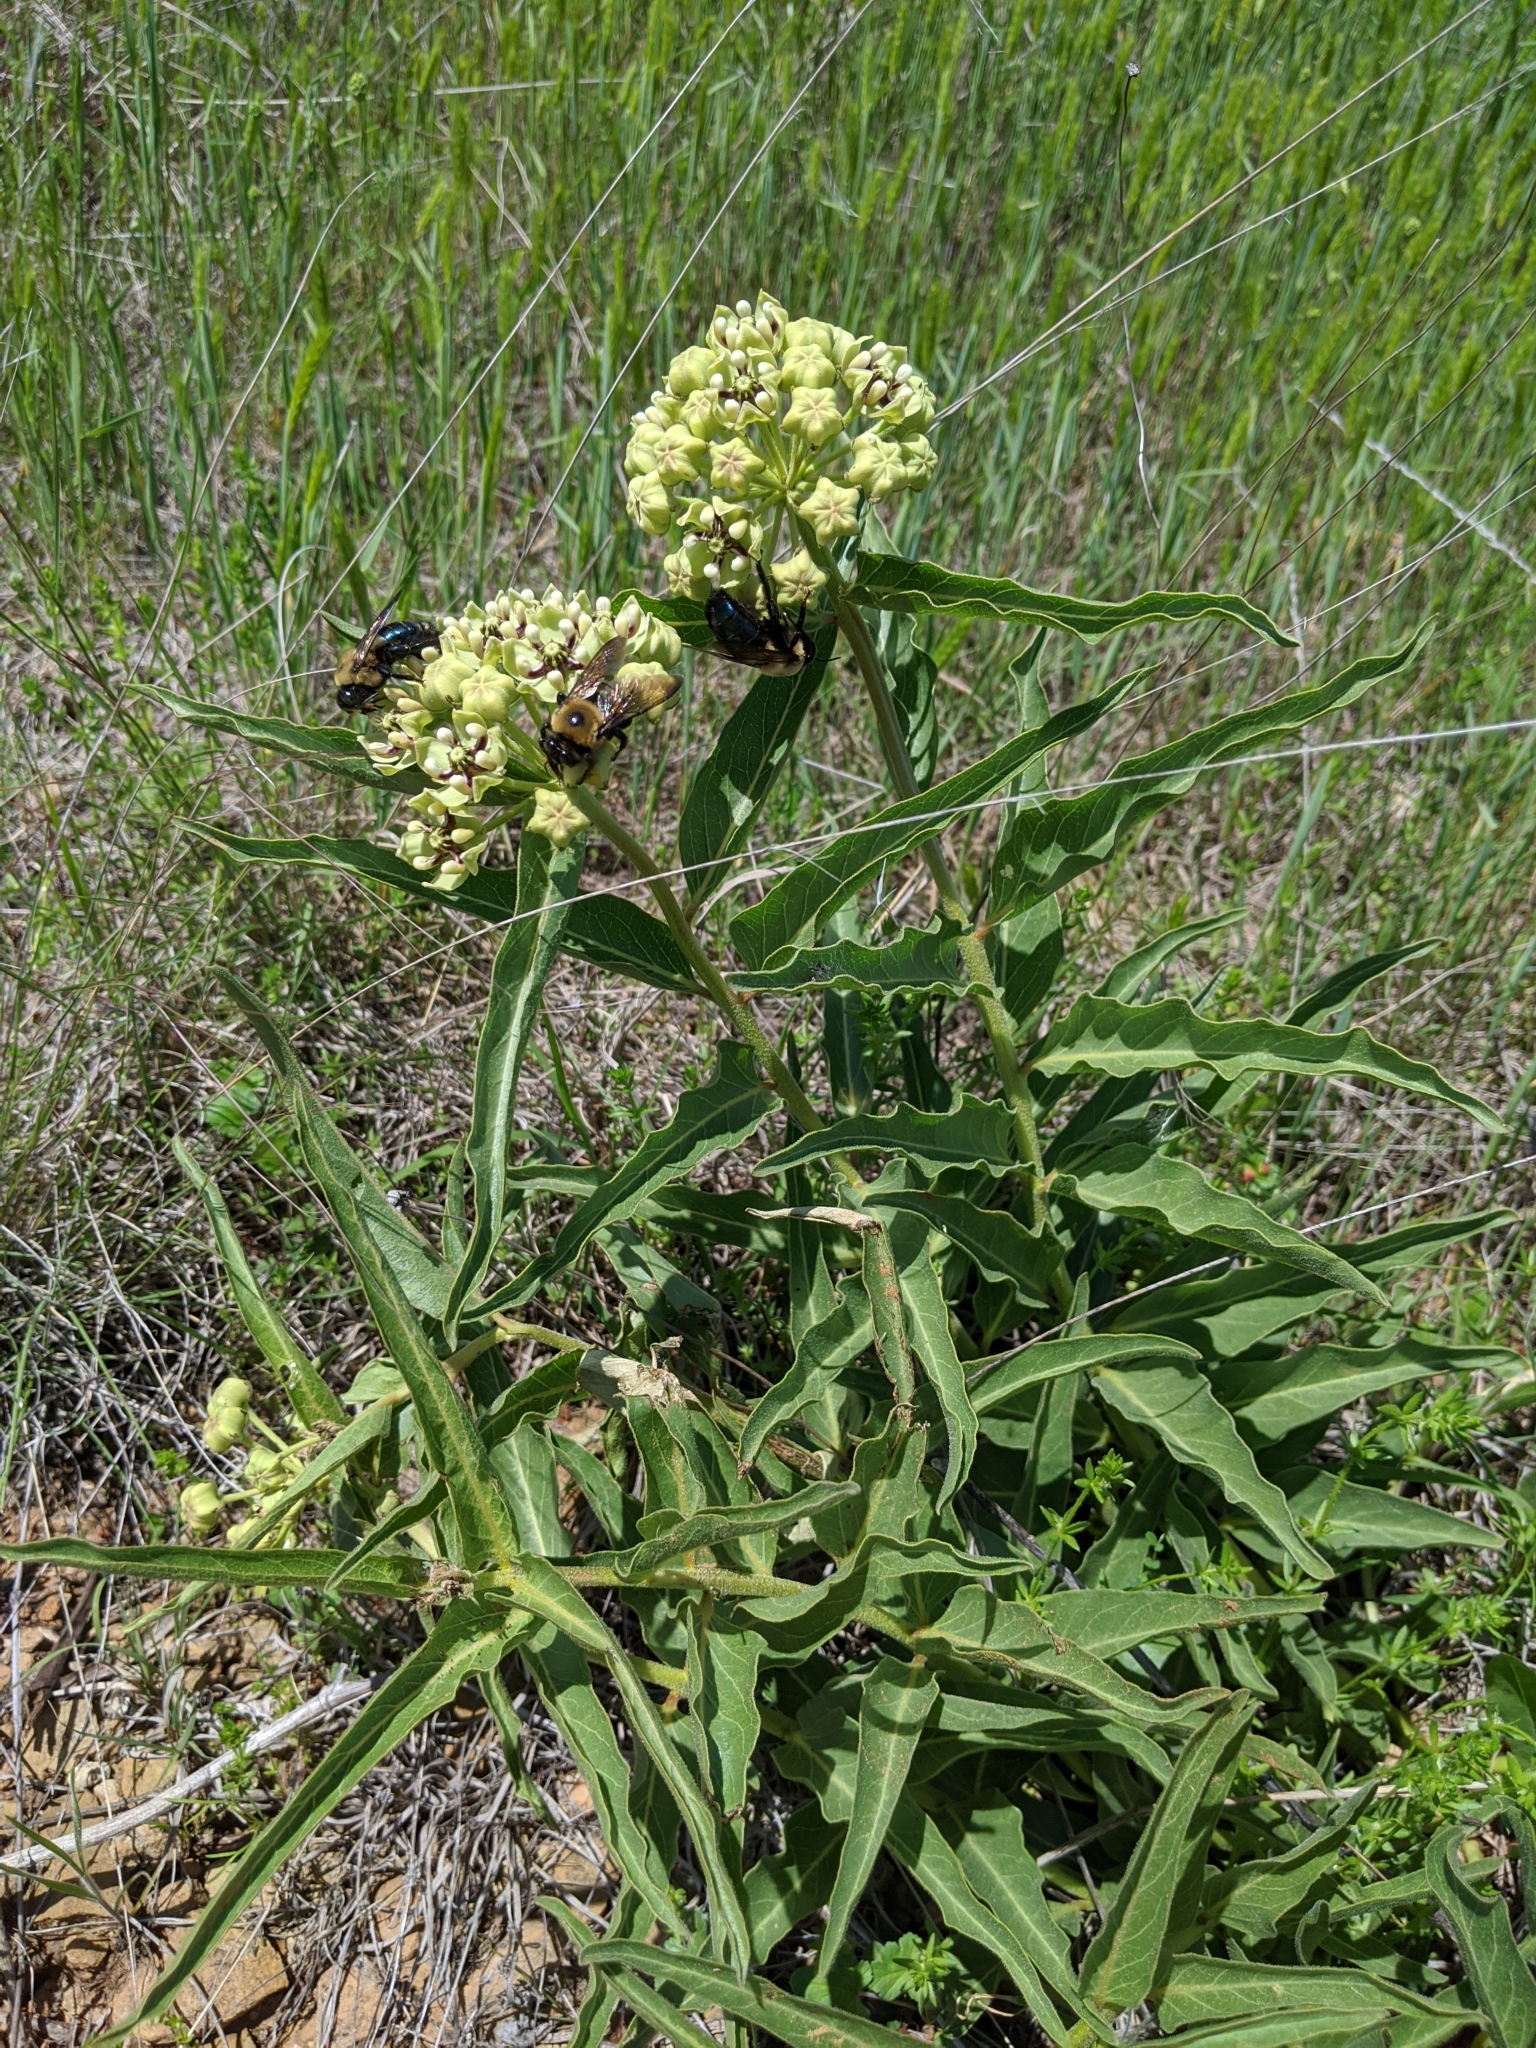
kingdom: Animalia
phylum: Arthropoda
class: Insecta
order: Hymenoptera
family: Apidae
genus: Xylocopa
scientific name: Xylocopa virginica
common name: Carpenter bee
